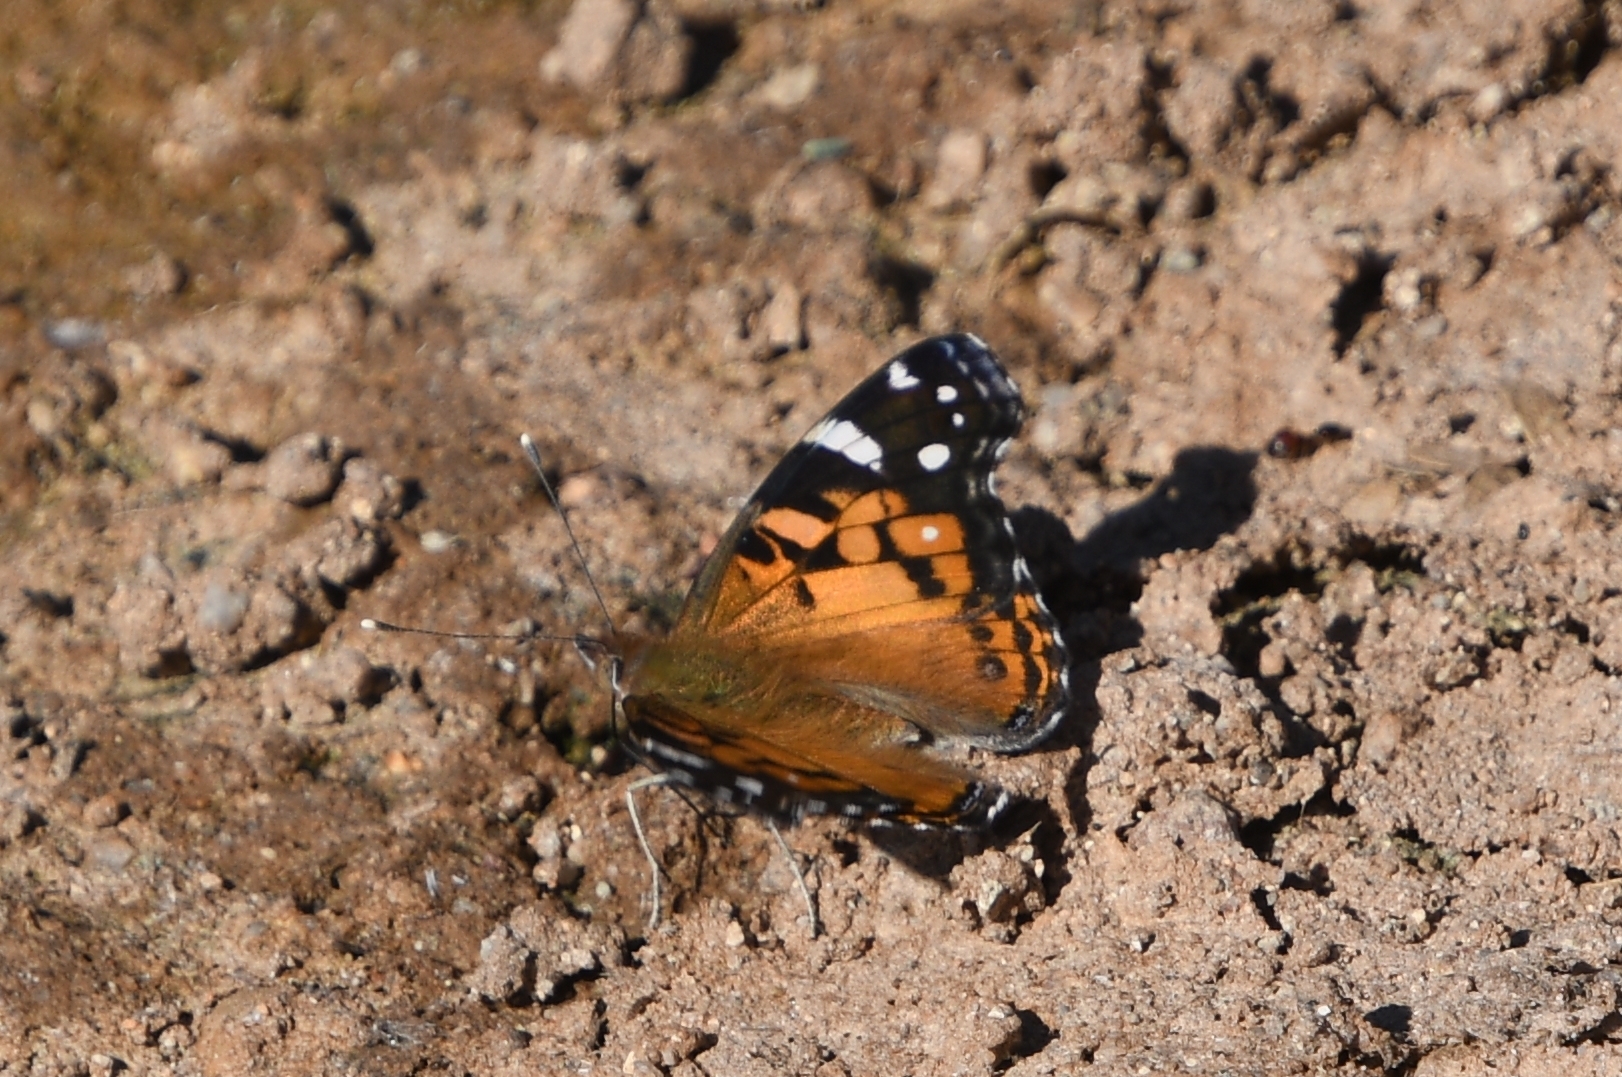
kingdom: Animalia
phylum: Arthropoda
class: Insecta
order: Lepidoptera
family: Nymphalidae
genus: Vanessa
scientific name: Vanessa virginiensis
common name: American lady
